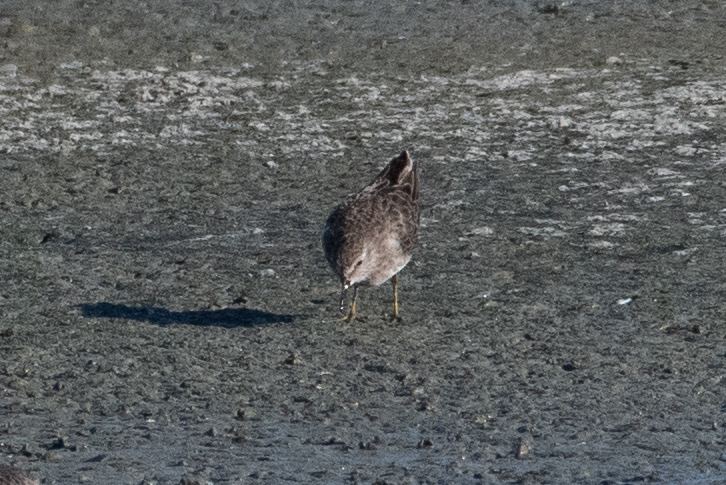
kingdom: Animalia
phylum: Chordata
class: Aves
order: Charadriiformes
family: Scolopacidae
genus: Calidris
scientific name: Calidris minutilla
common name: Least sandpiper
